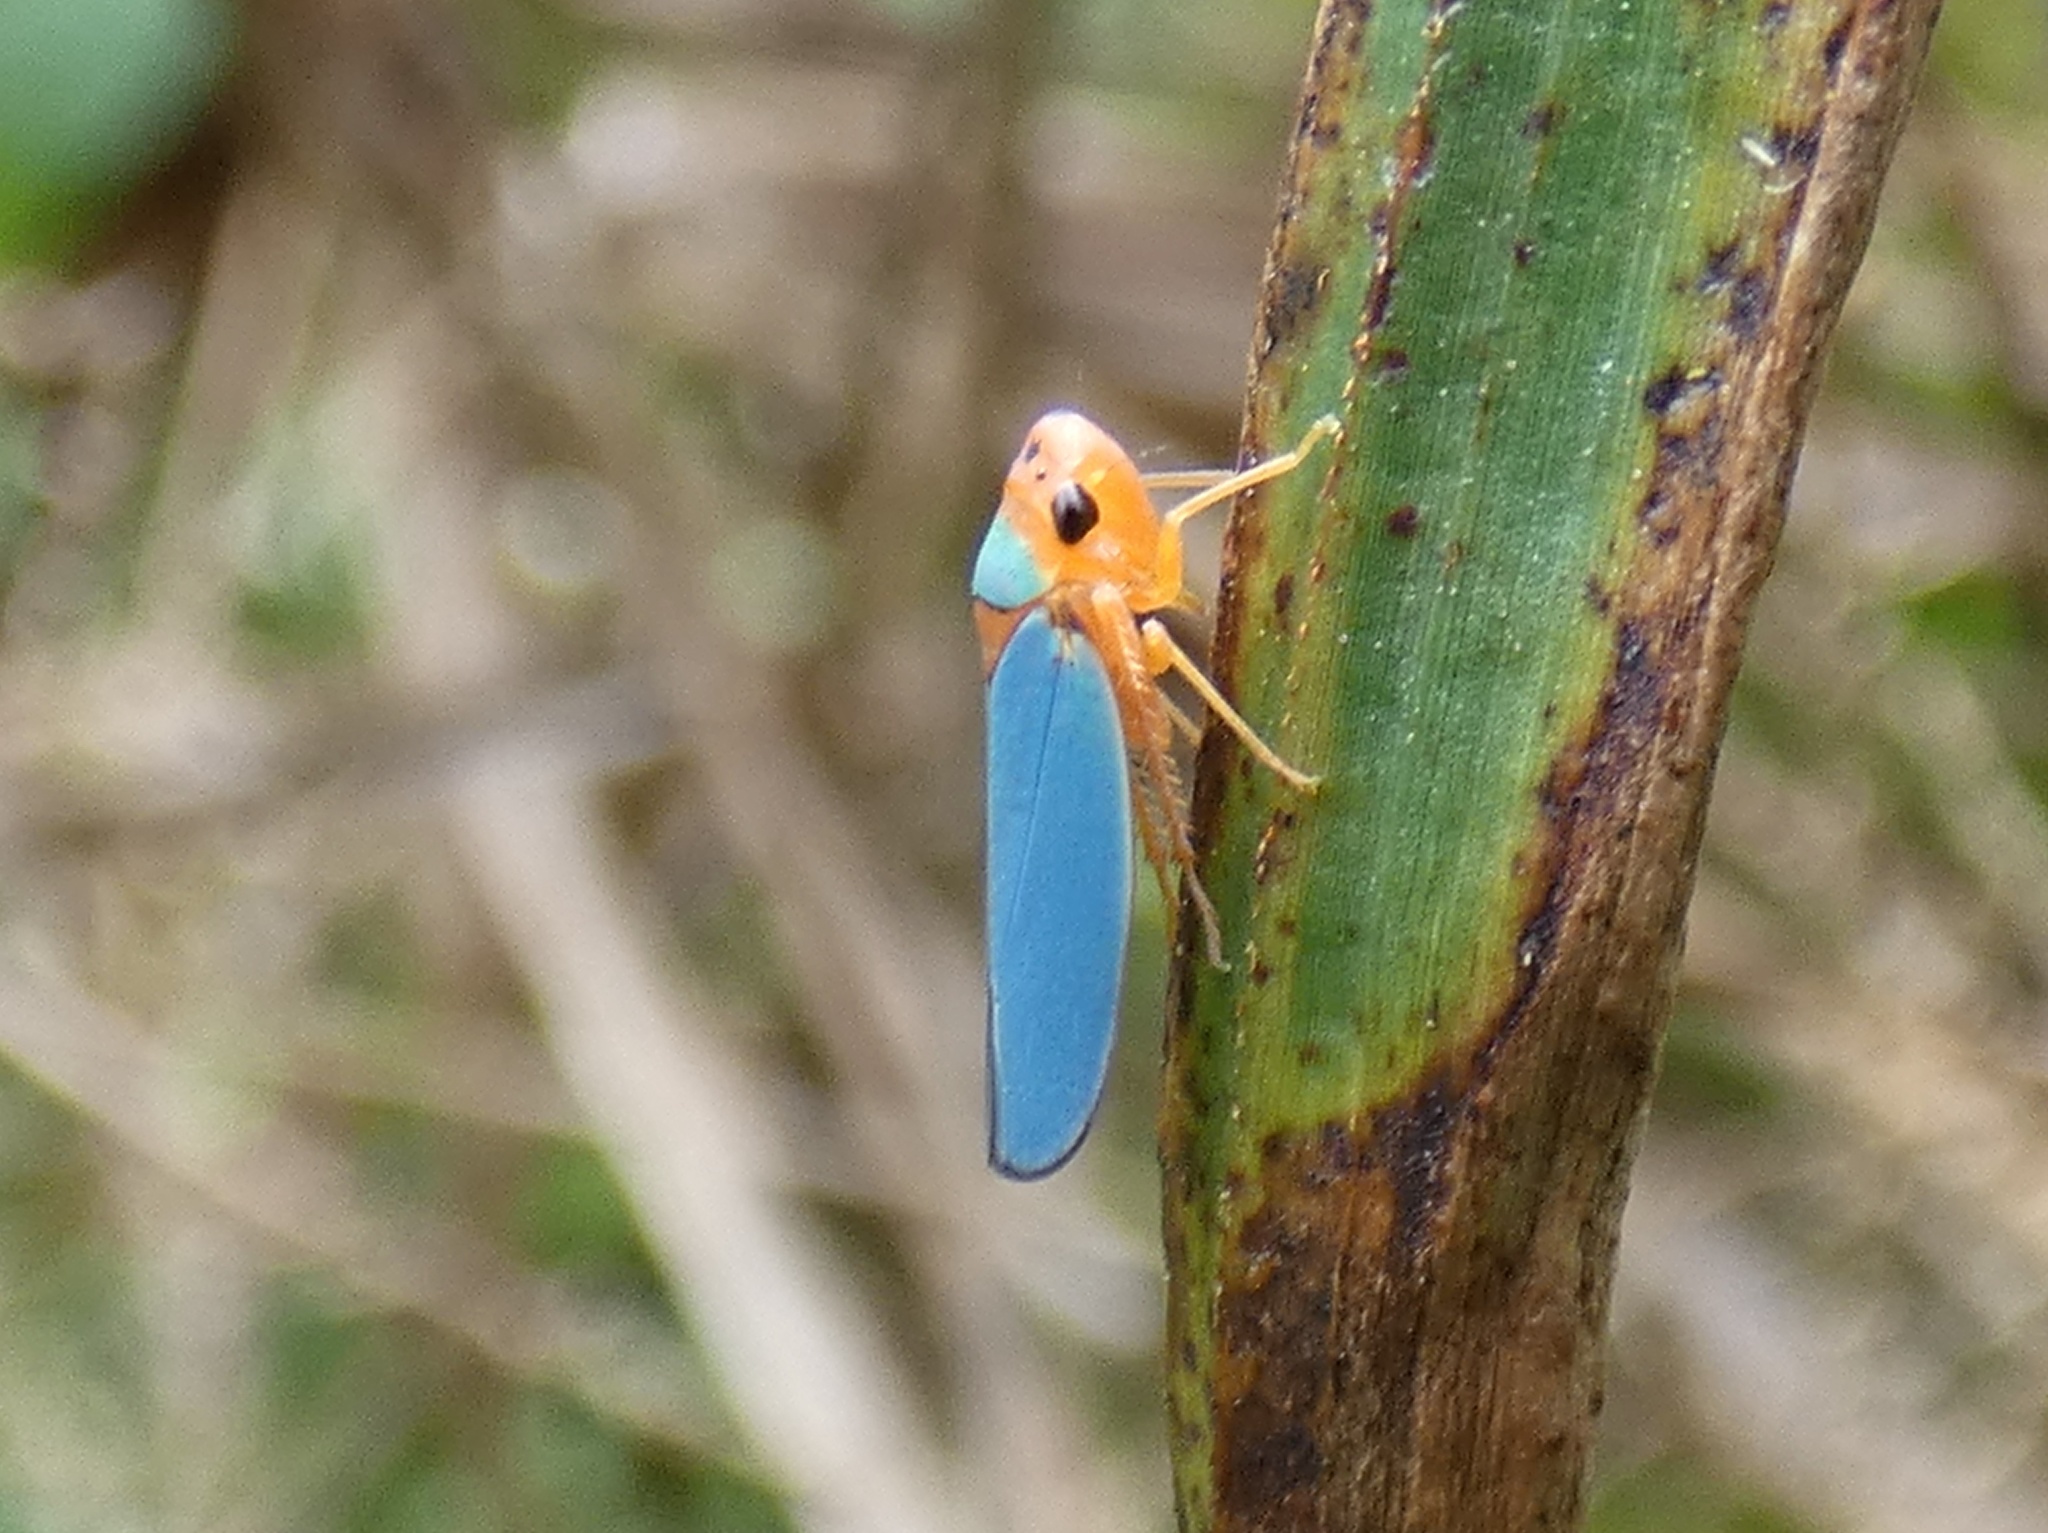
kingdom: Animalia
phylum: Arthropoda
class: Insecta
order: Hemiptera
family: Cicadellidae
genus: Macunolla
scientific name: Macunolla ventralis
